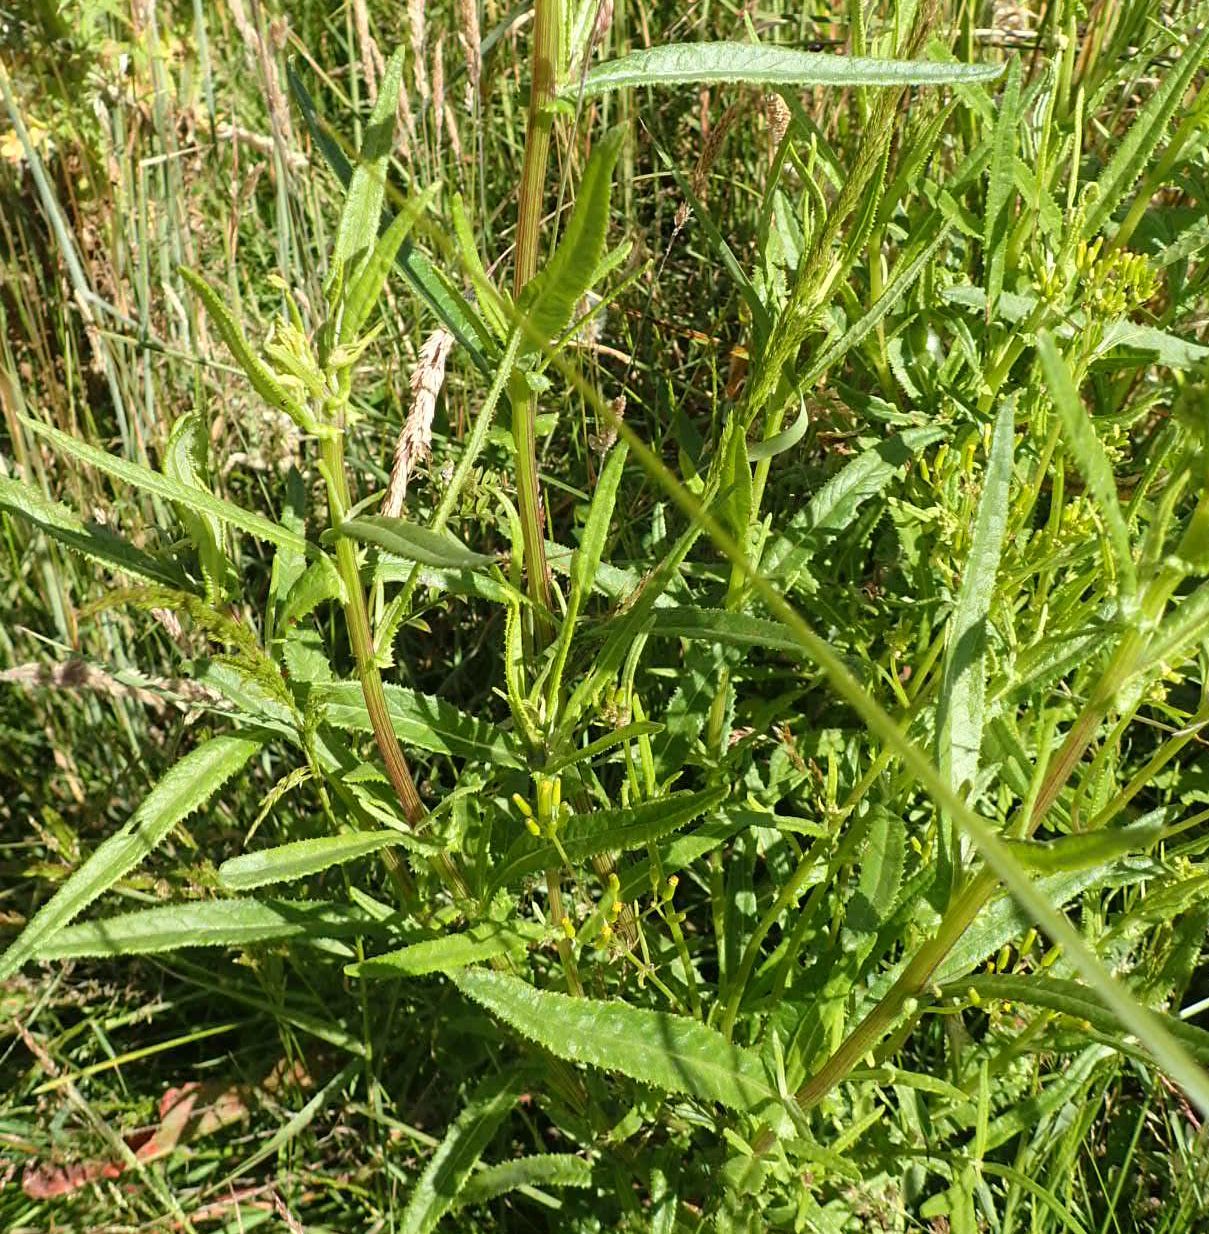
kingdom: Plantae
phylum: Tracheophyta
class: Magnoliopsida
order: Asterales
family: Asteraceae
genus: Senecio
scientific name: Senecio minimus
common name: Toothed fireweed
